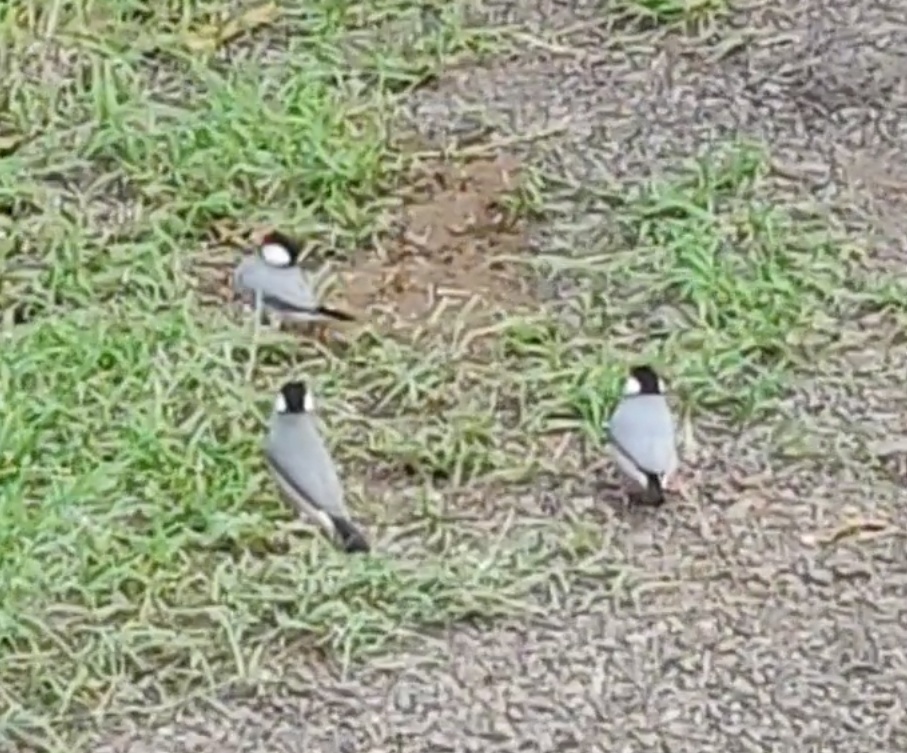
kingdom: Animalia
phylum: Chordata
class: Aves
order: Passeriformes
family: Estrildidae
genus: Lonchura
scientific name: Lonchura oryzivora
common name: Java sparrow
